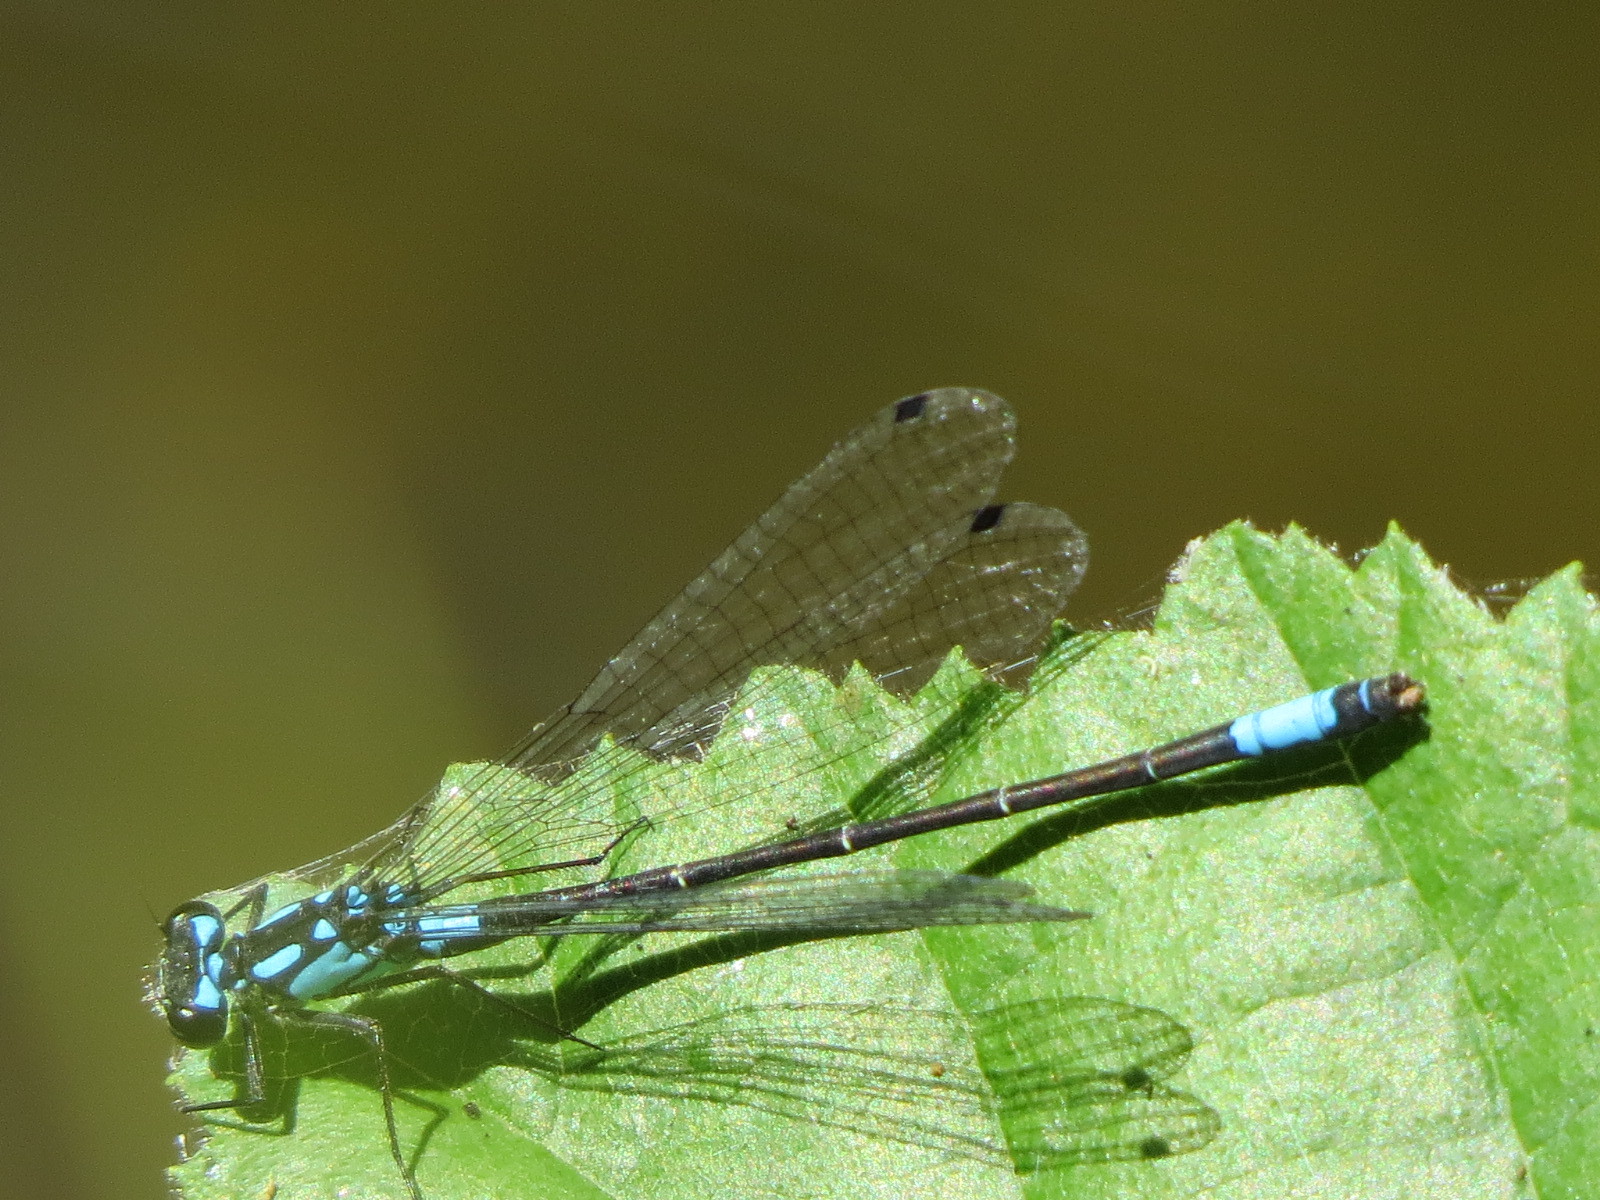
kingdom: Animalia
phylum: Arthropoda
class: Insecta
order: Odonata
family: Coenagrionidae
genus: Zoniagrion
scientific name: Zoniagrion exclamationis
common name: Exclamation damsel
